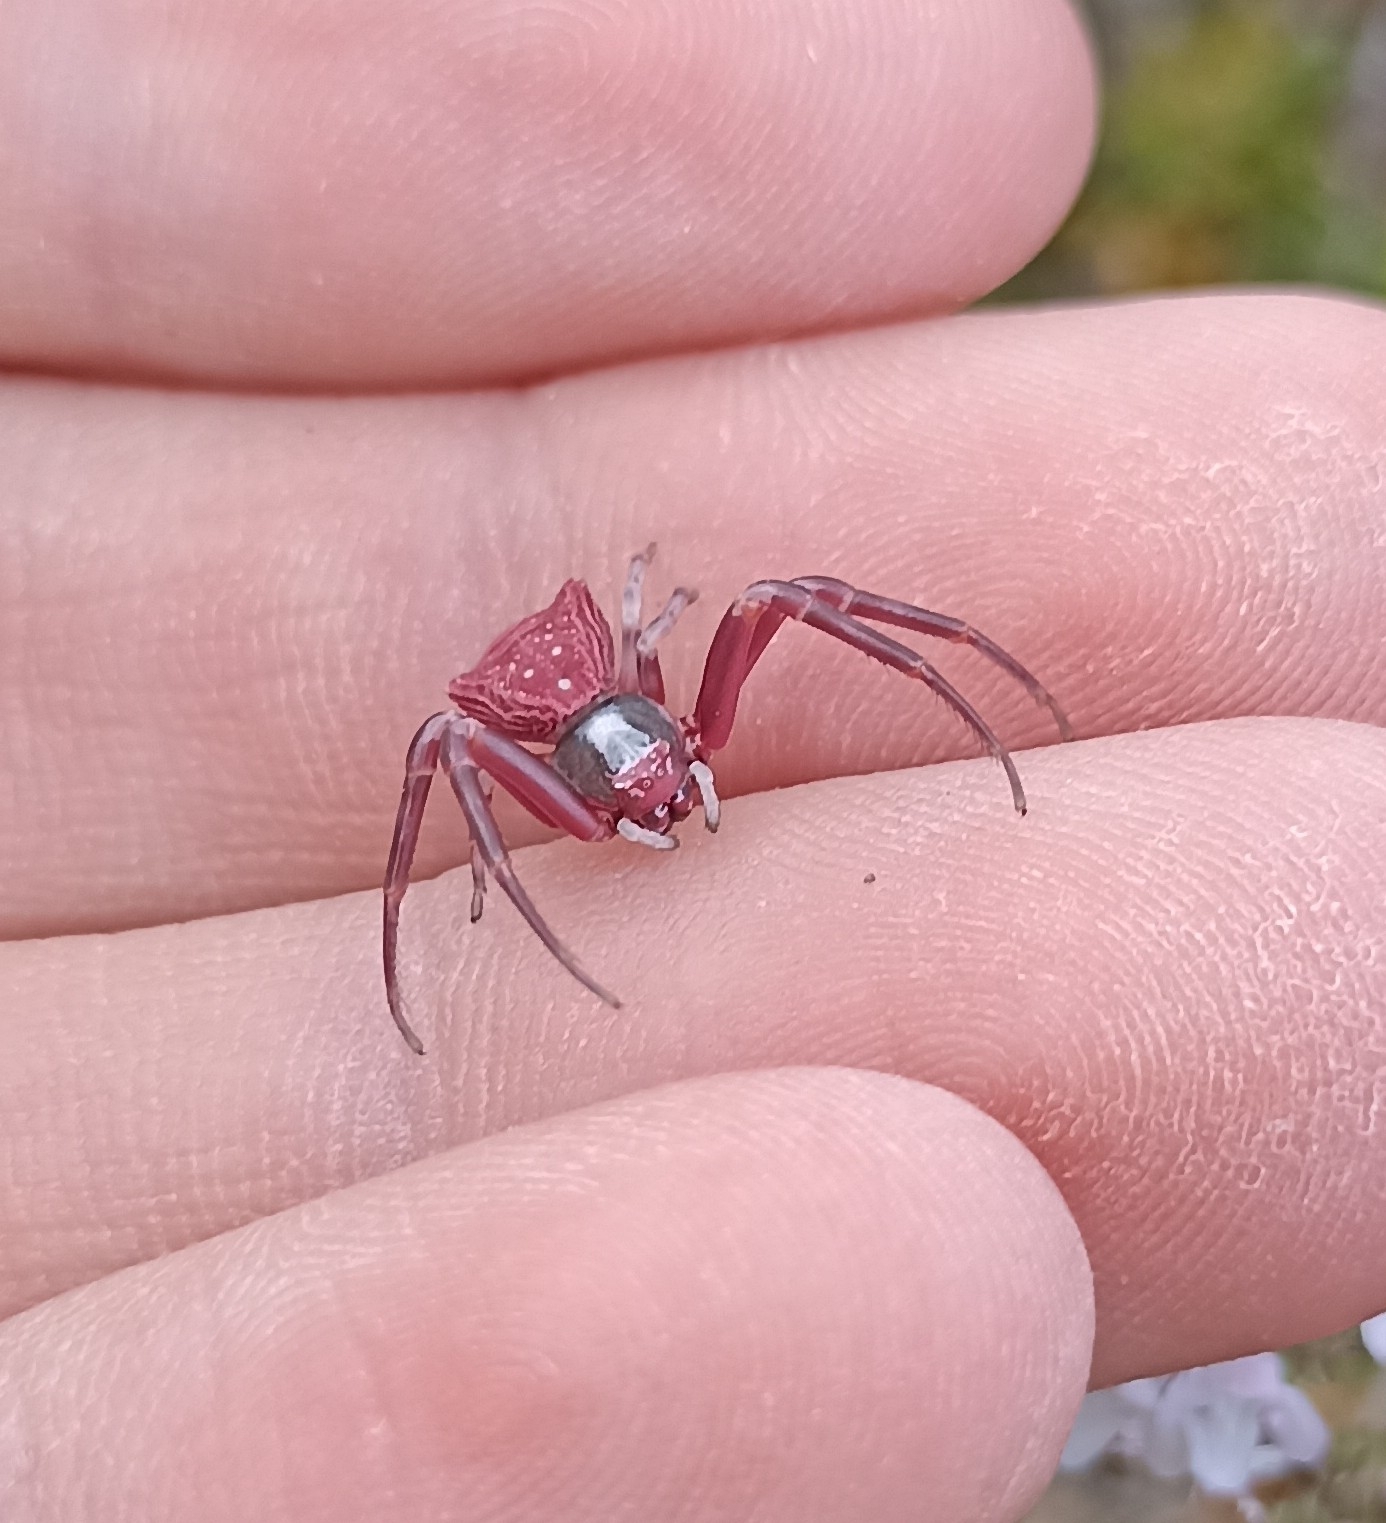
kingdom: Animalia
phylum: Arthropoda
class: Arachnida
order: Araneae
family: Thomisidae
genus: Thomisus
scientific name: Thomisus onustus
